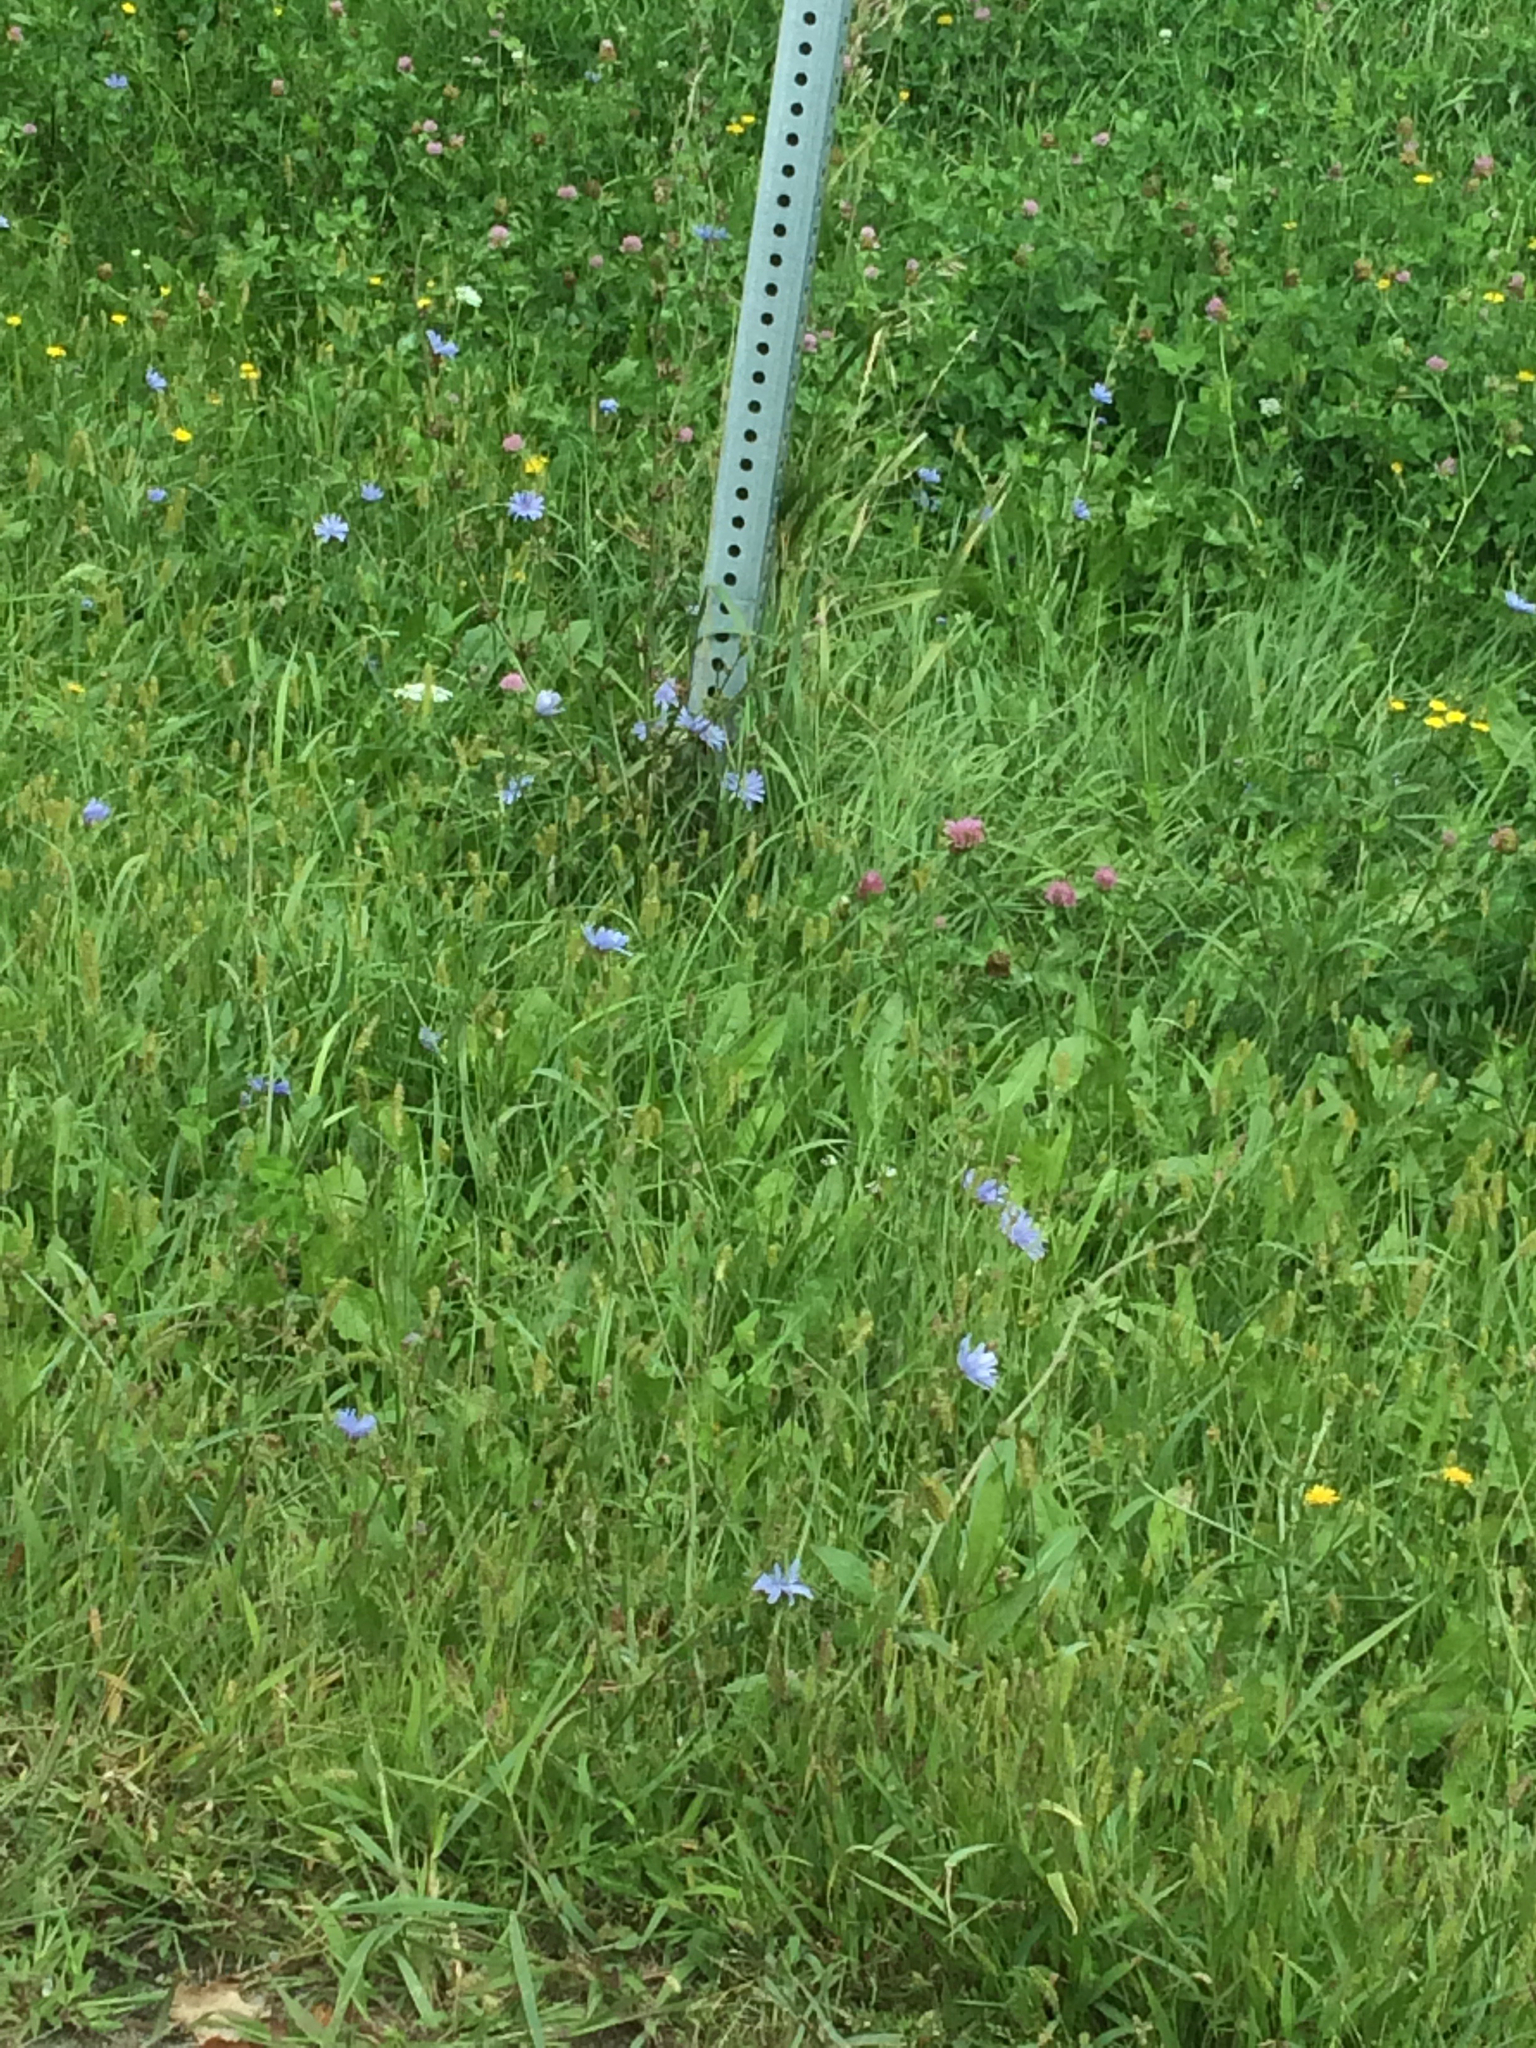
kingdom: Plantae
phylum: Tracheophyta
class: Magnoliopsida
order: Asterales
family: Asteraceae
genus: Cichorium
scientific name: Cichorium intybus
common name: Chicory
